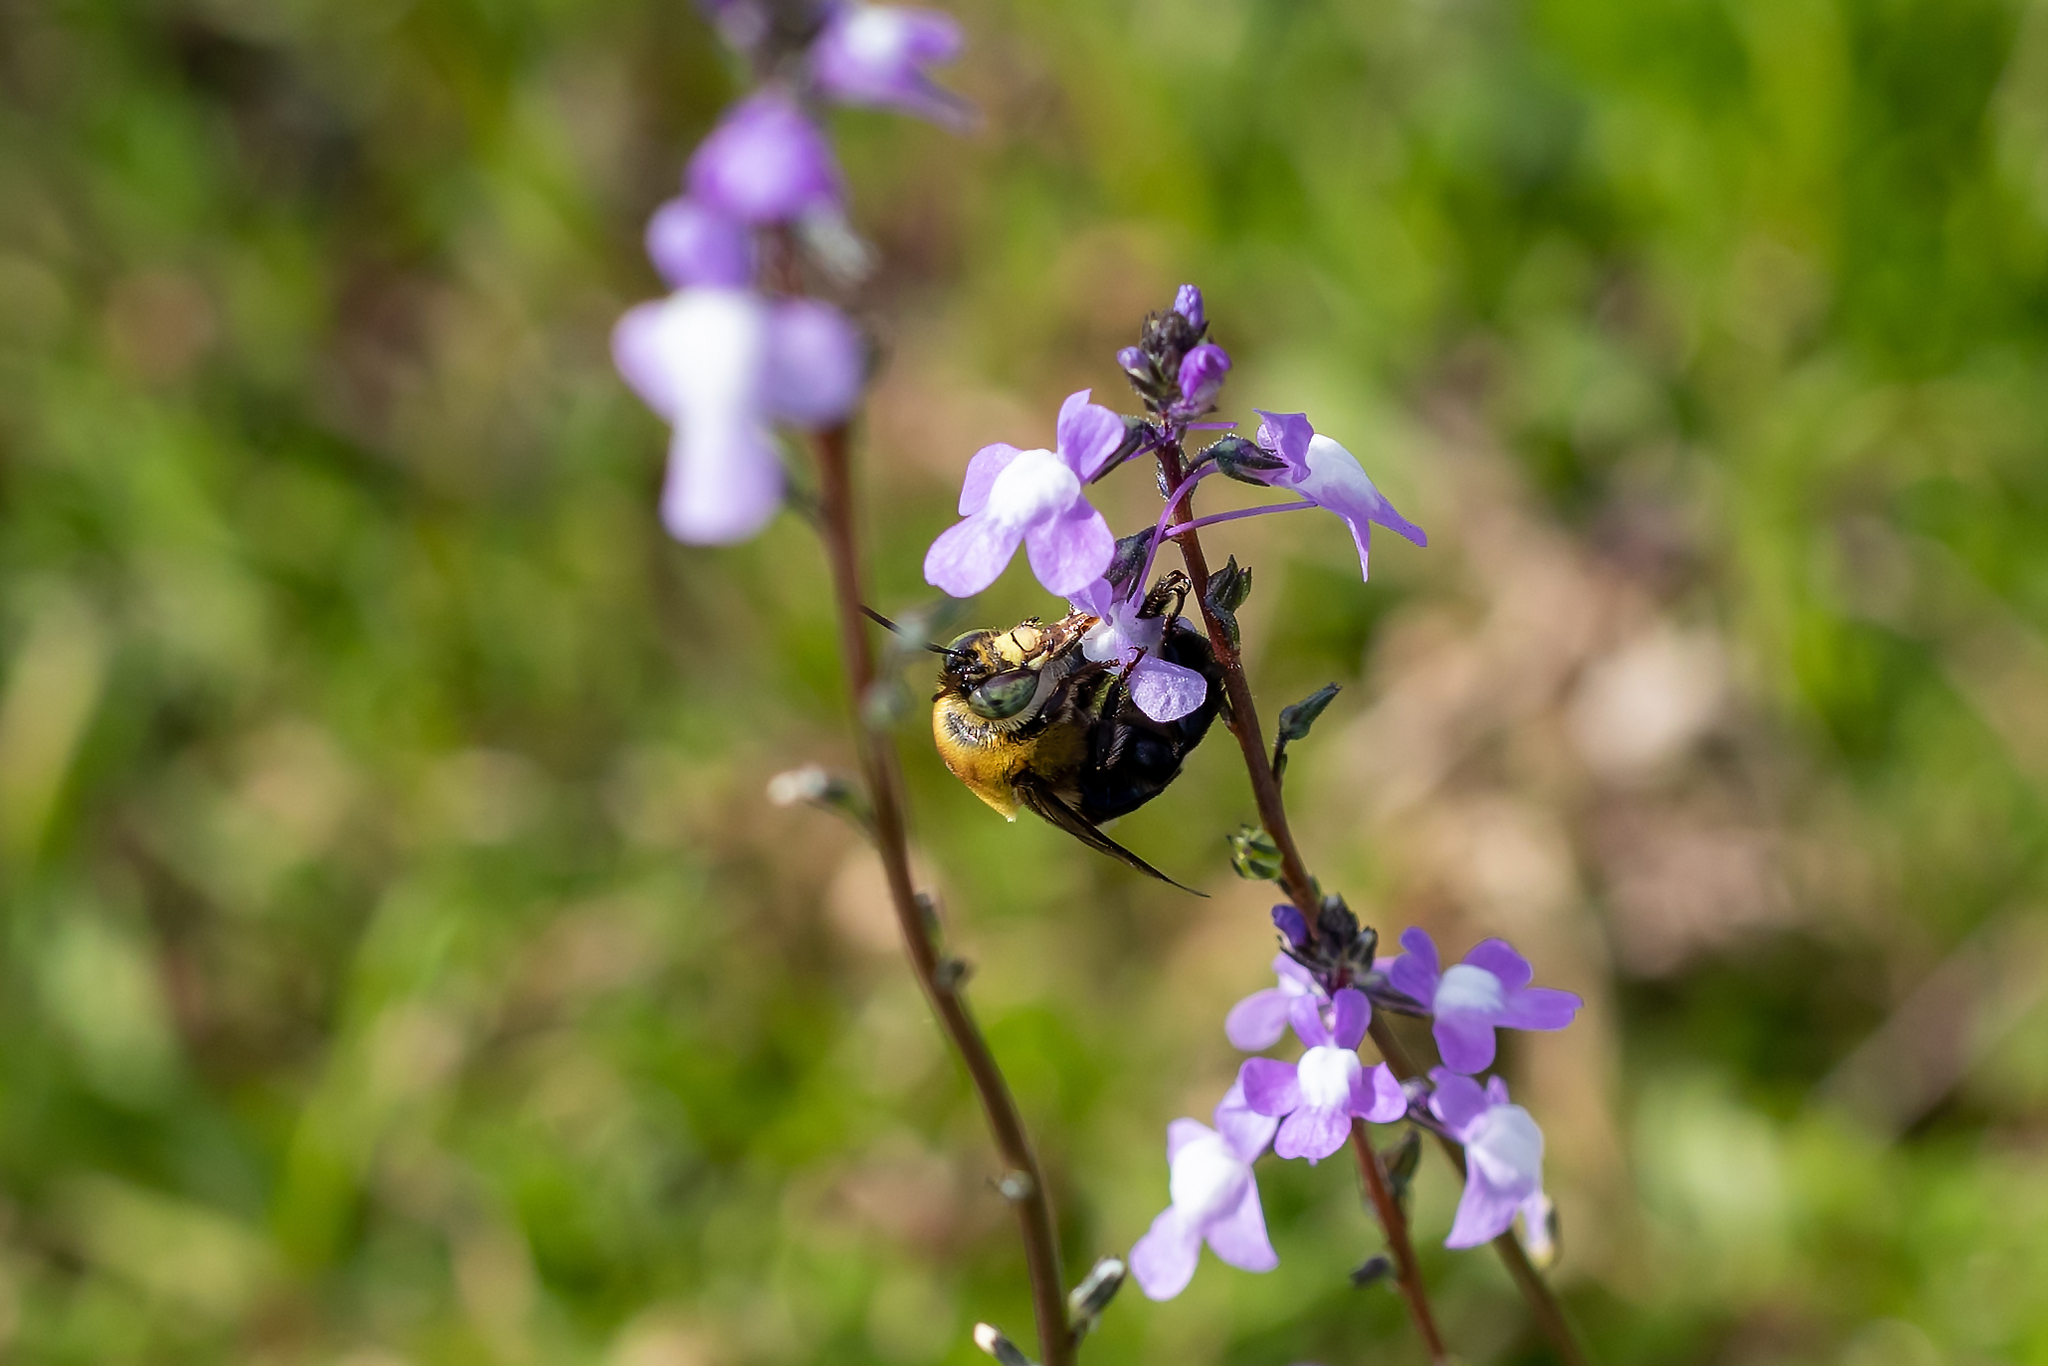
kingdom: Animalia
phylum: Arthropoda
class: Insecta
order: Hymenoptera
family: Apidae
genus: Centris
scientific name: Centris nitida
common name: Oil-collecting bee
